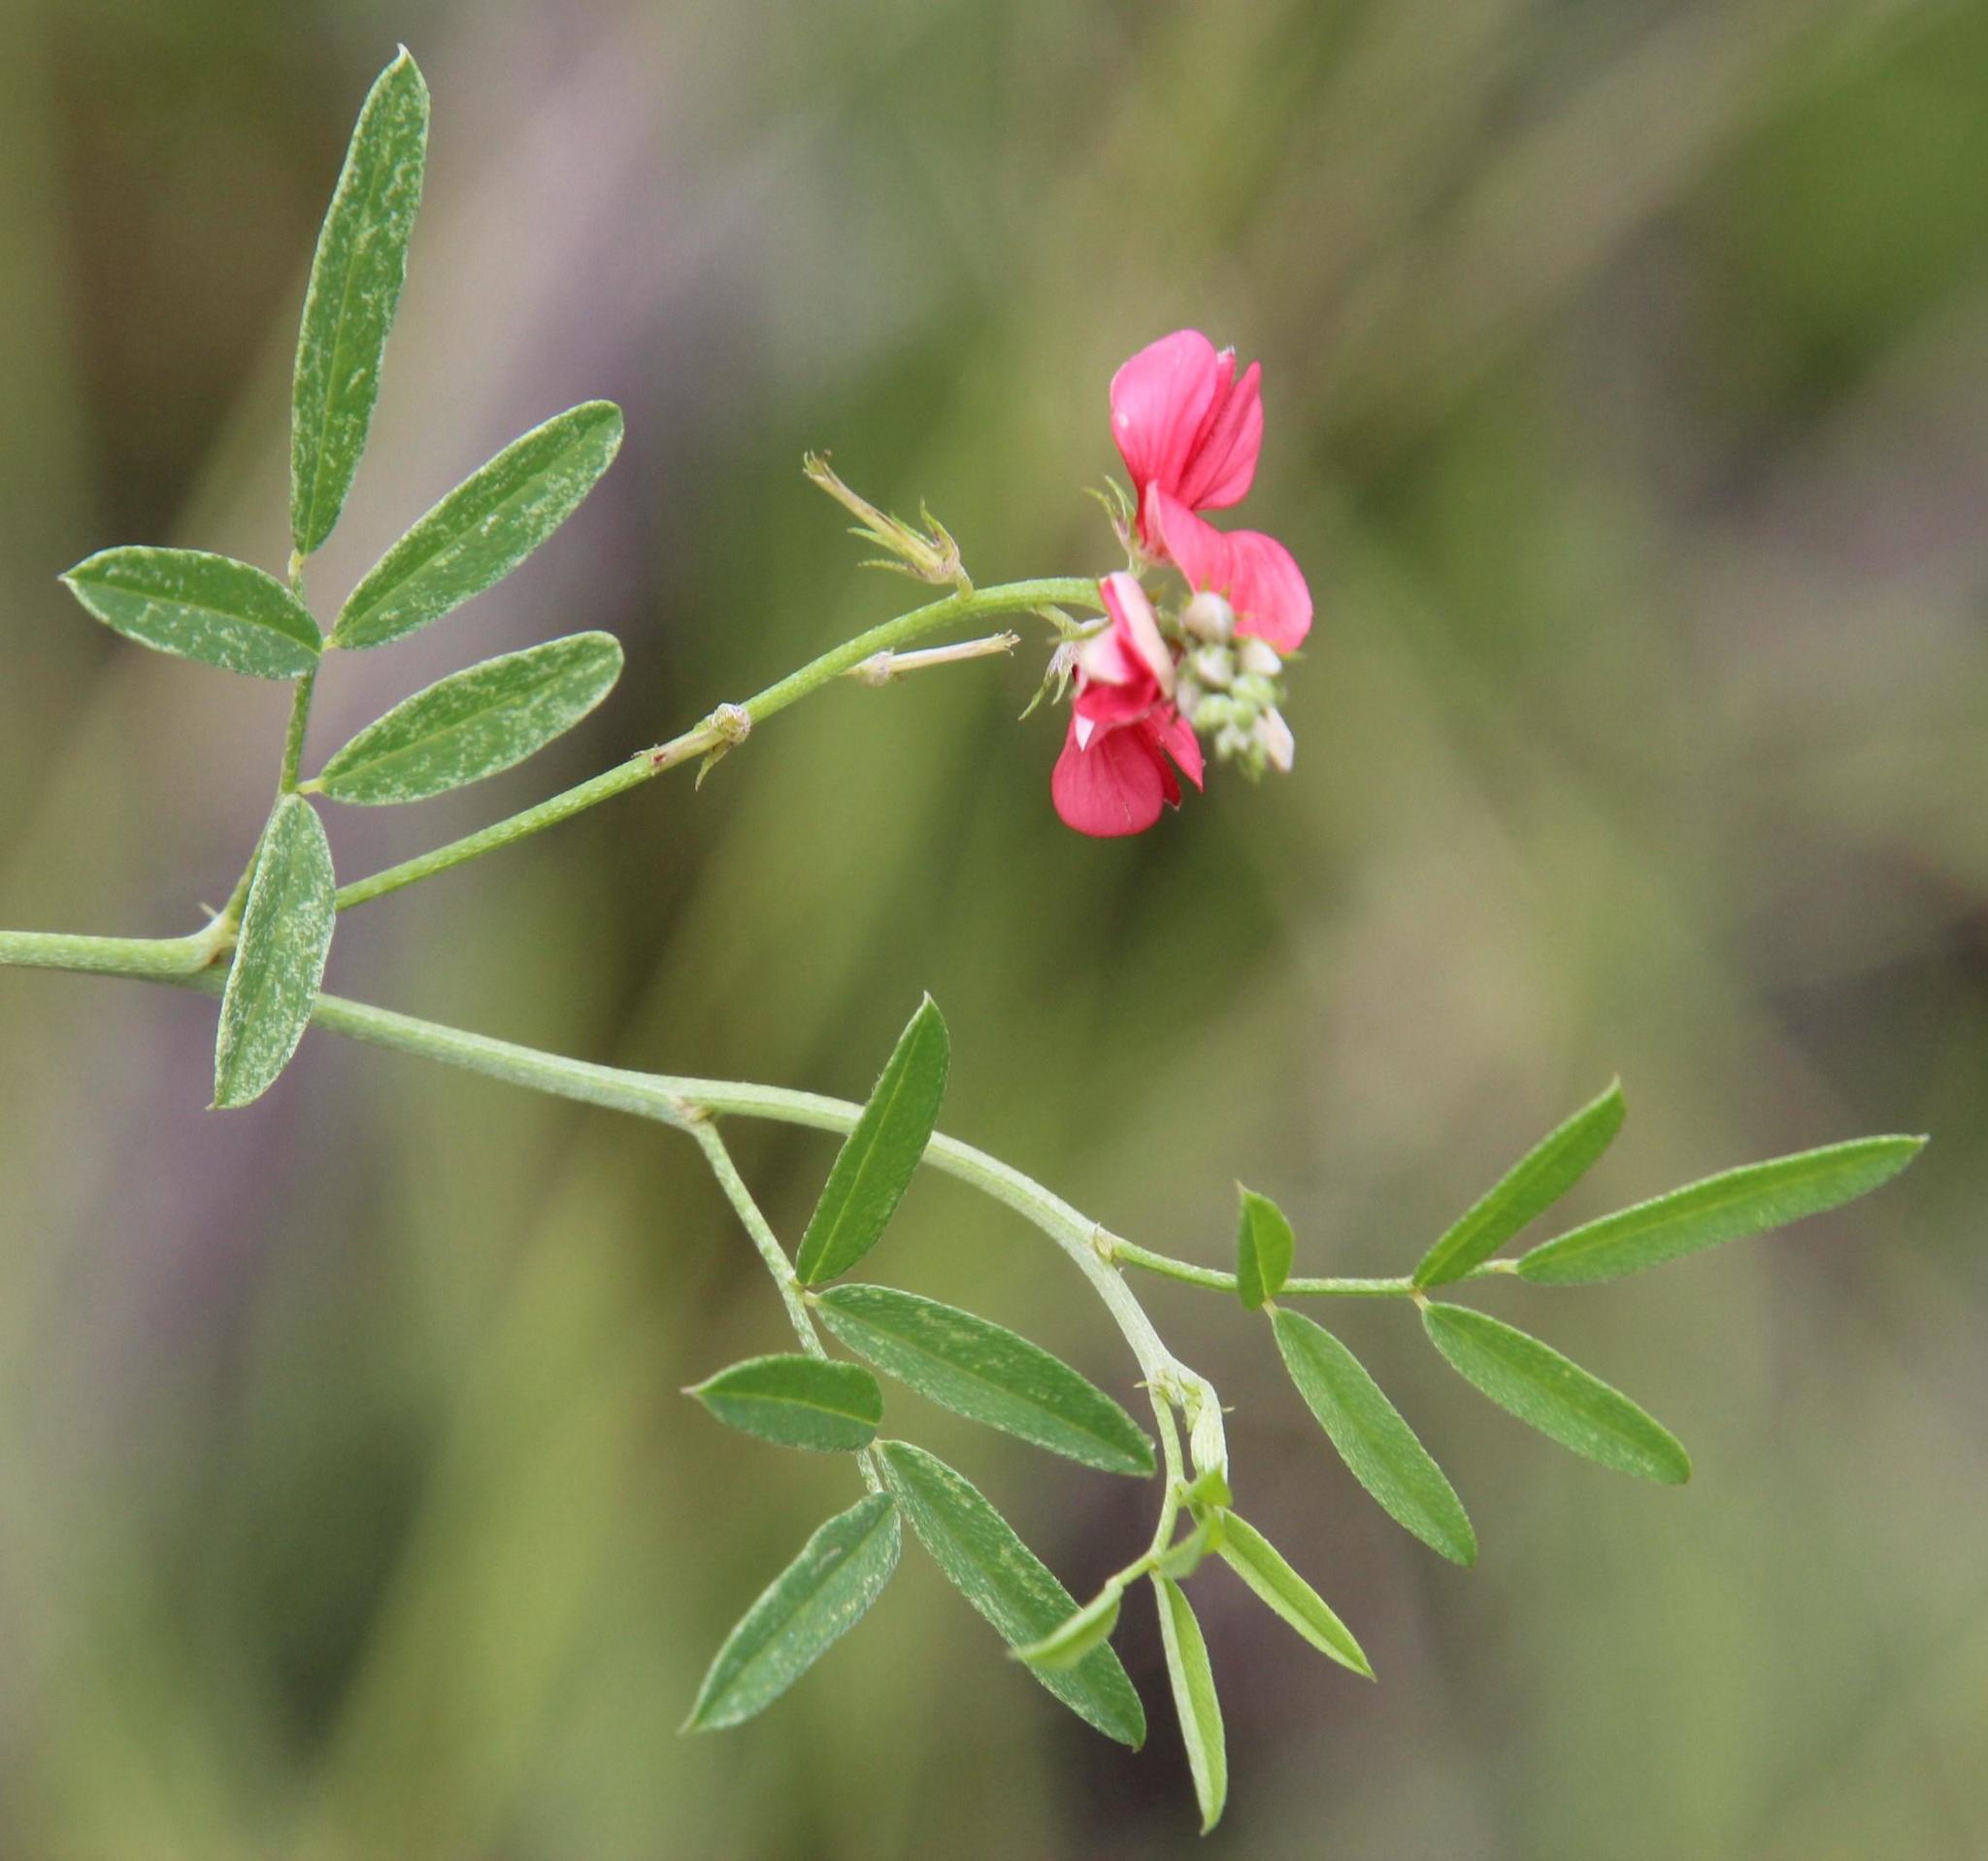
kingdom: Plantae
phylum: Tracheophyta
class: Magnoliopsida
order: Fabales
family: Fabaceae
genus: Indigofera
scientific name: Indigofera disticha
